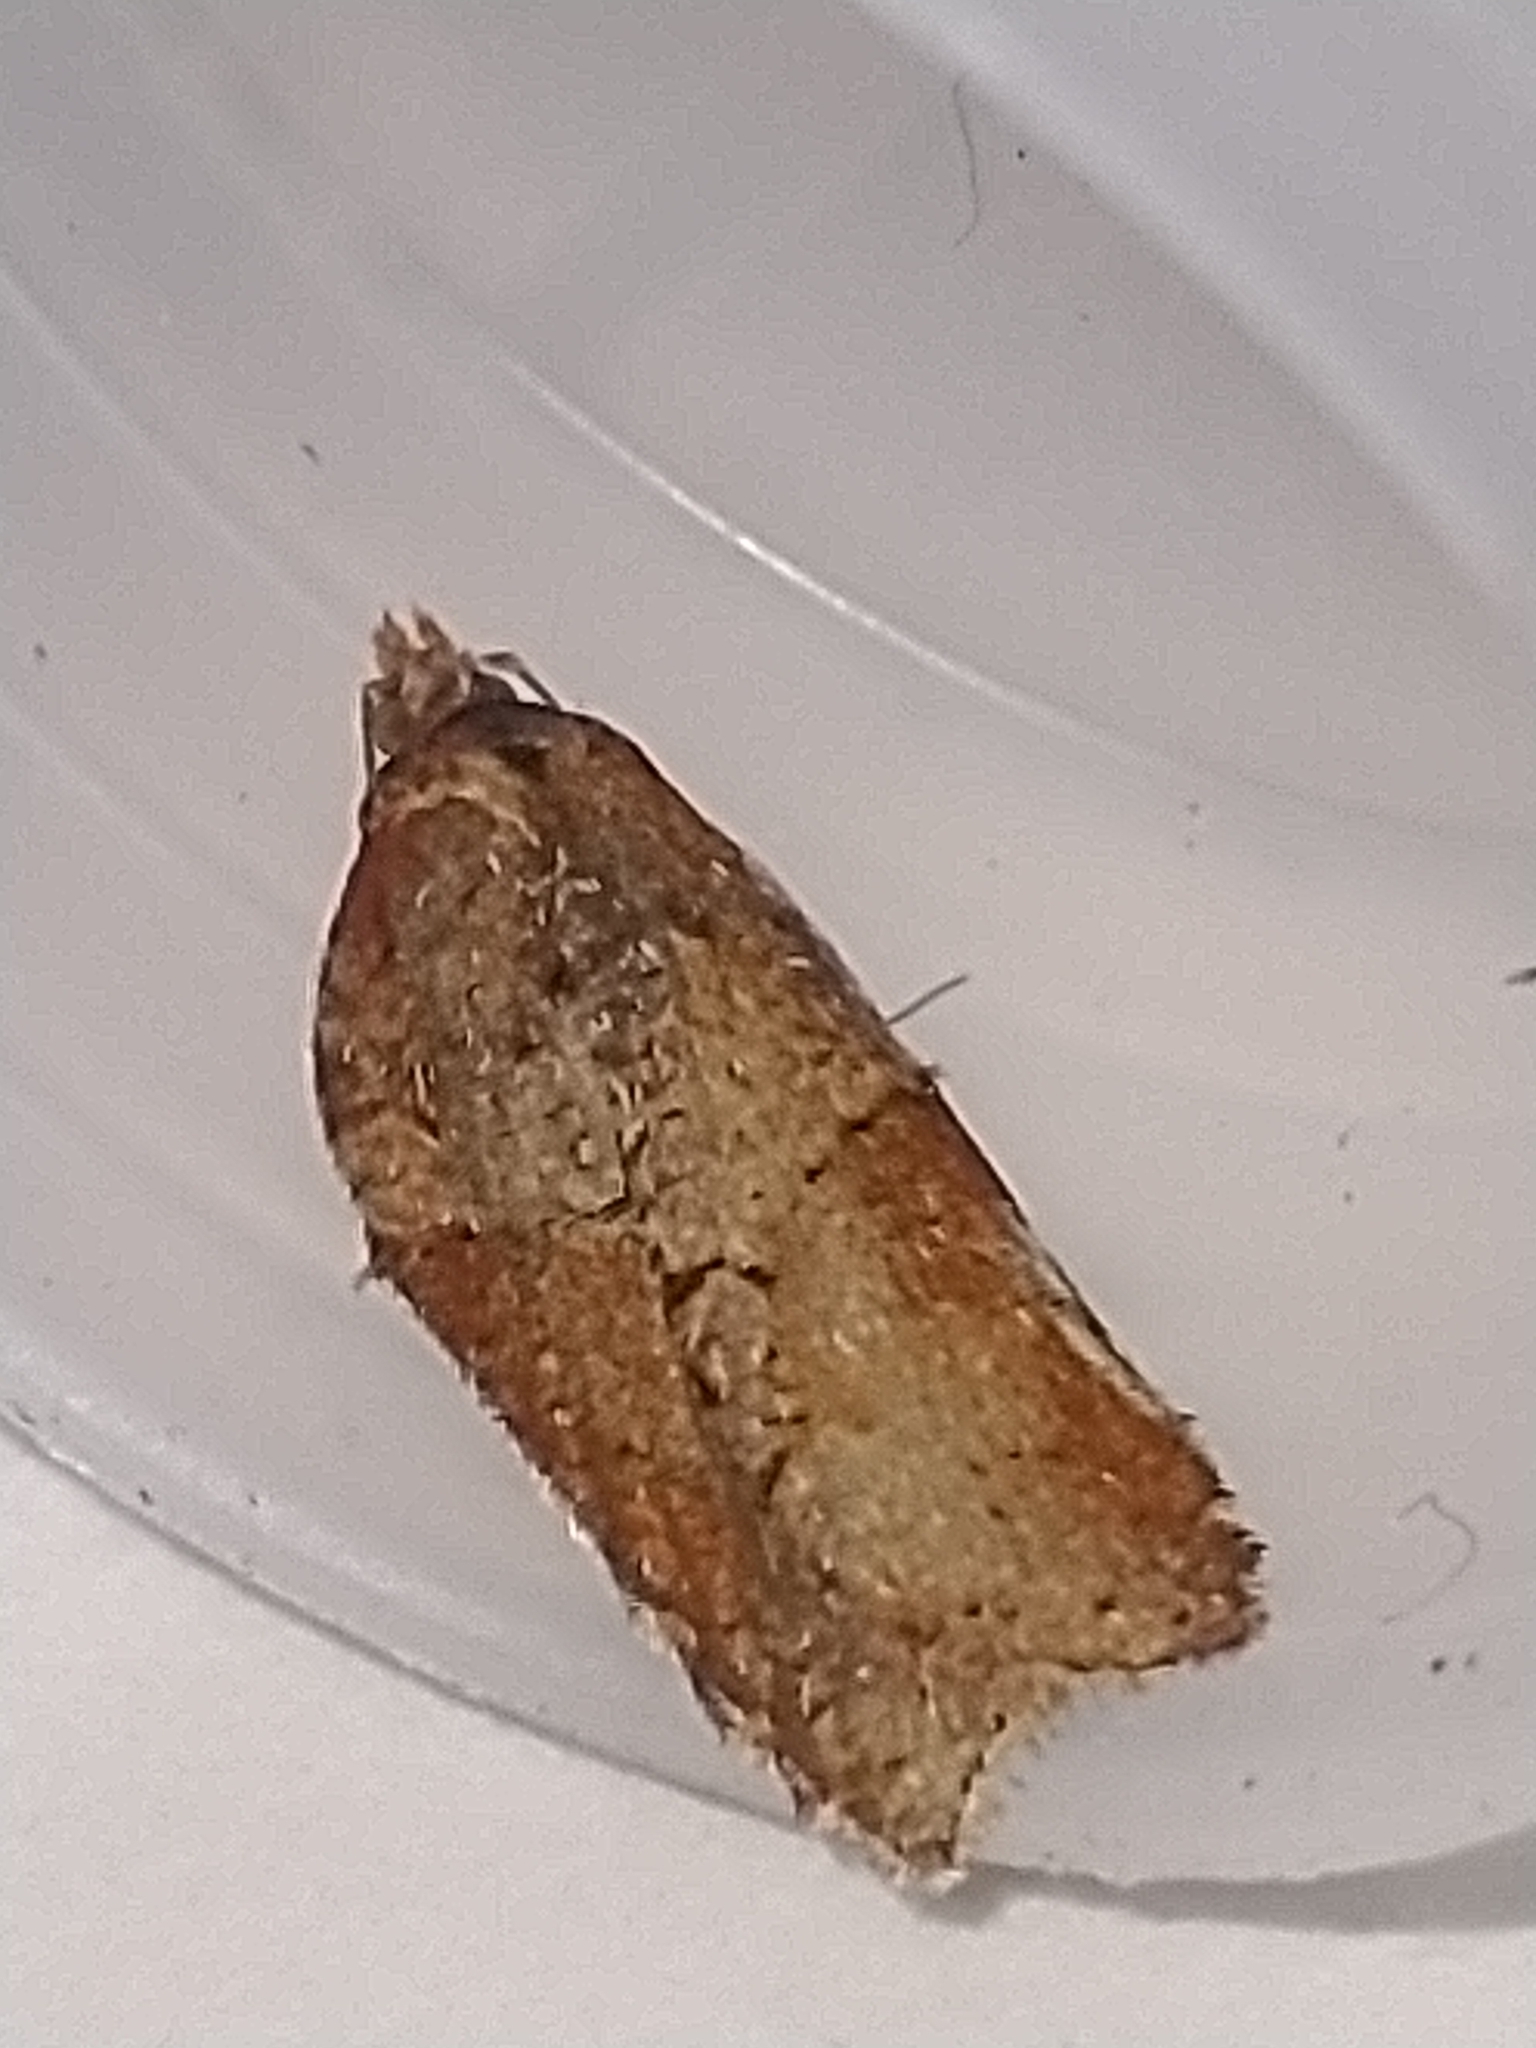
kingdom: Animalia
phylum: Arthropoda
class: Insecta
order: Lepidoptera
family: Tortricidae
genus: Acleris
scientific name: Acleris hastiana
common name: Sallow button
